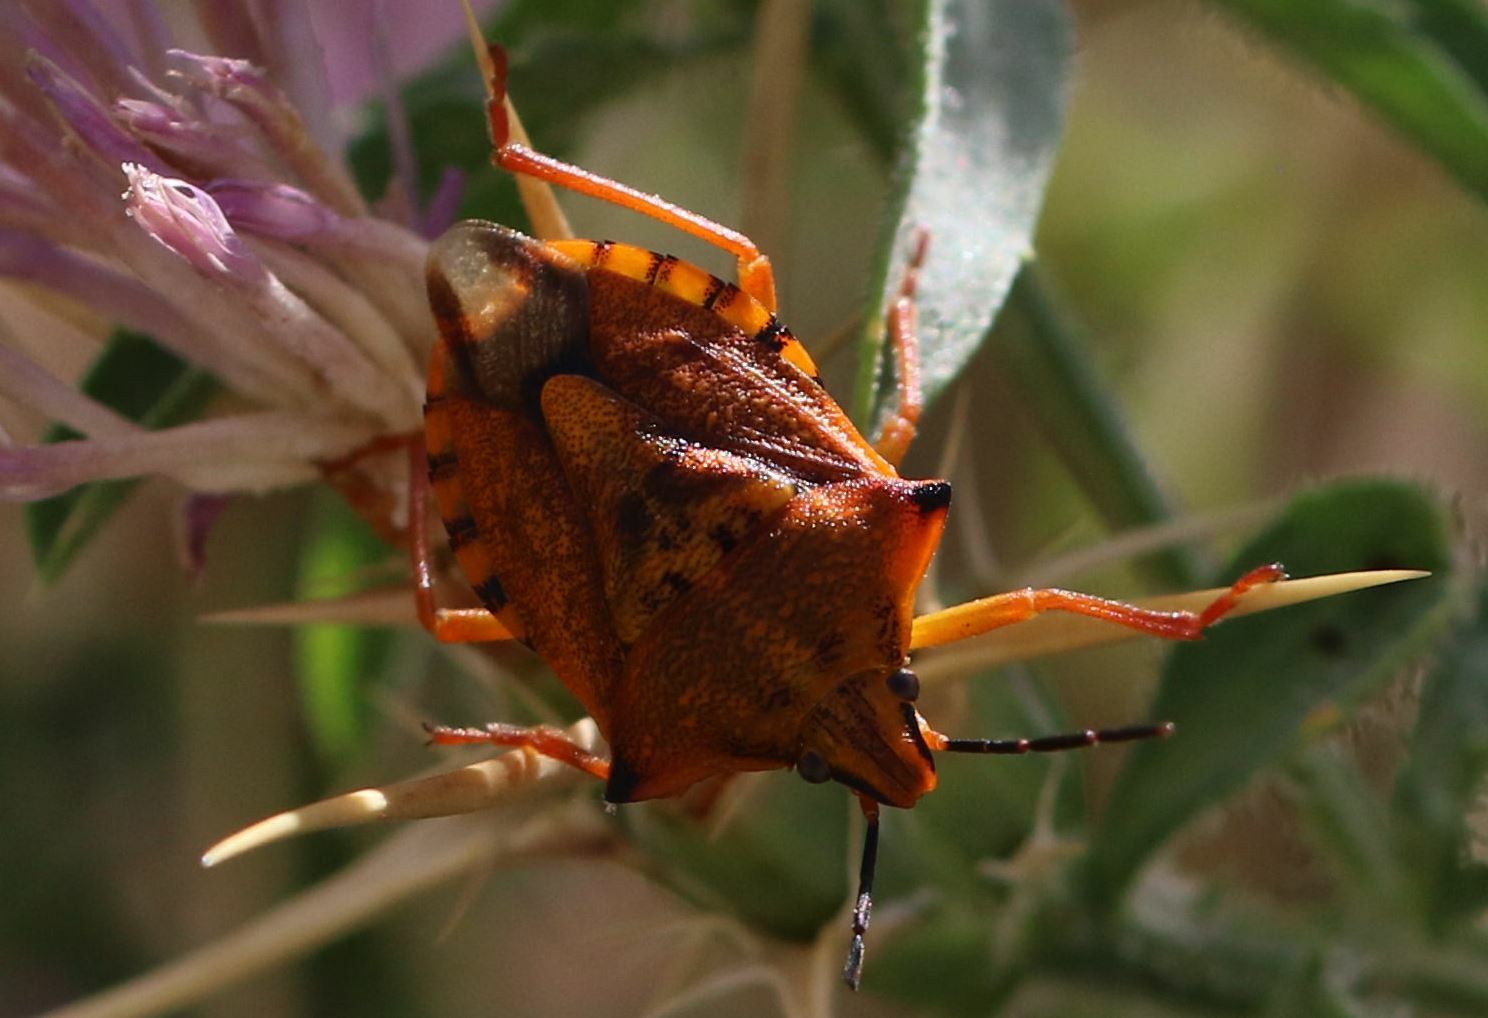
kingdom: Animalia
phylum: Arthropoda
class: Insecta
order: Hemiptera
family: Pentatomidae
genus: Carpocoris
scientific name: Carpocoris mediterraneus
